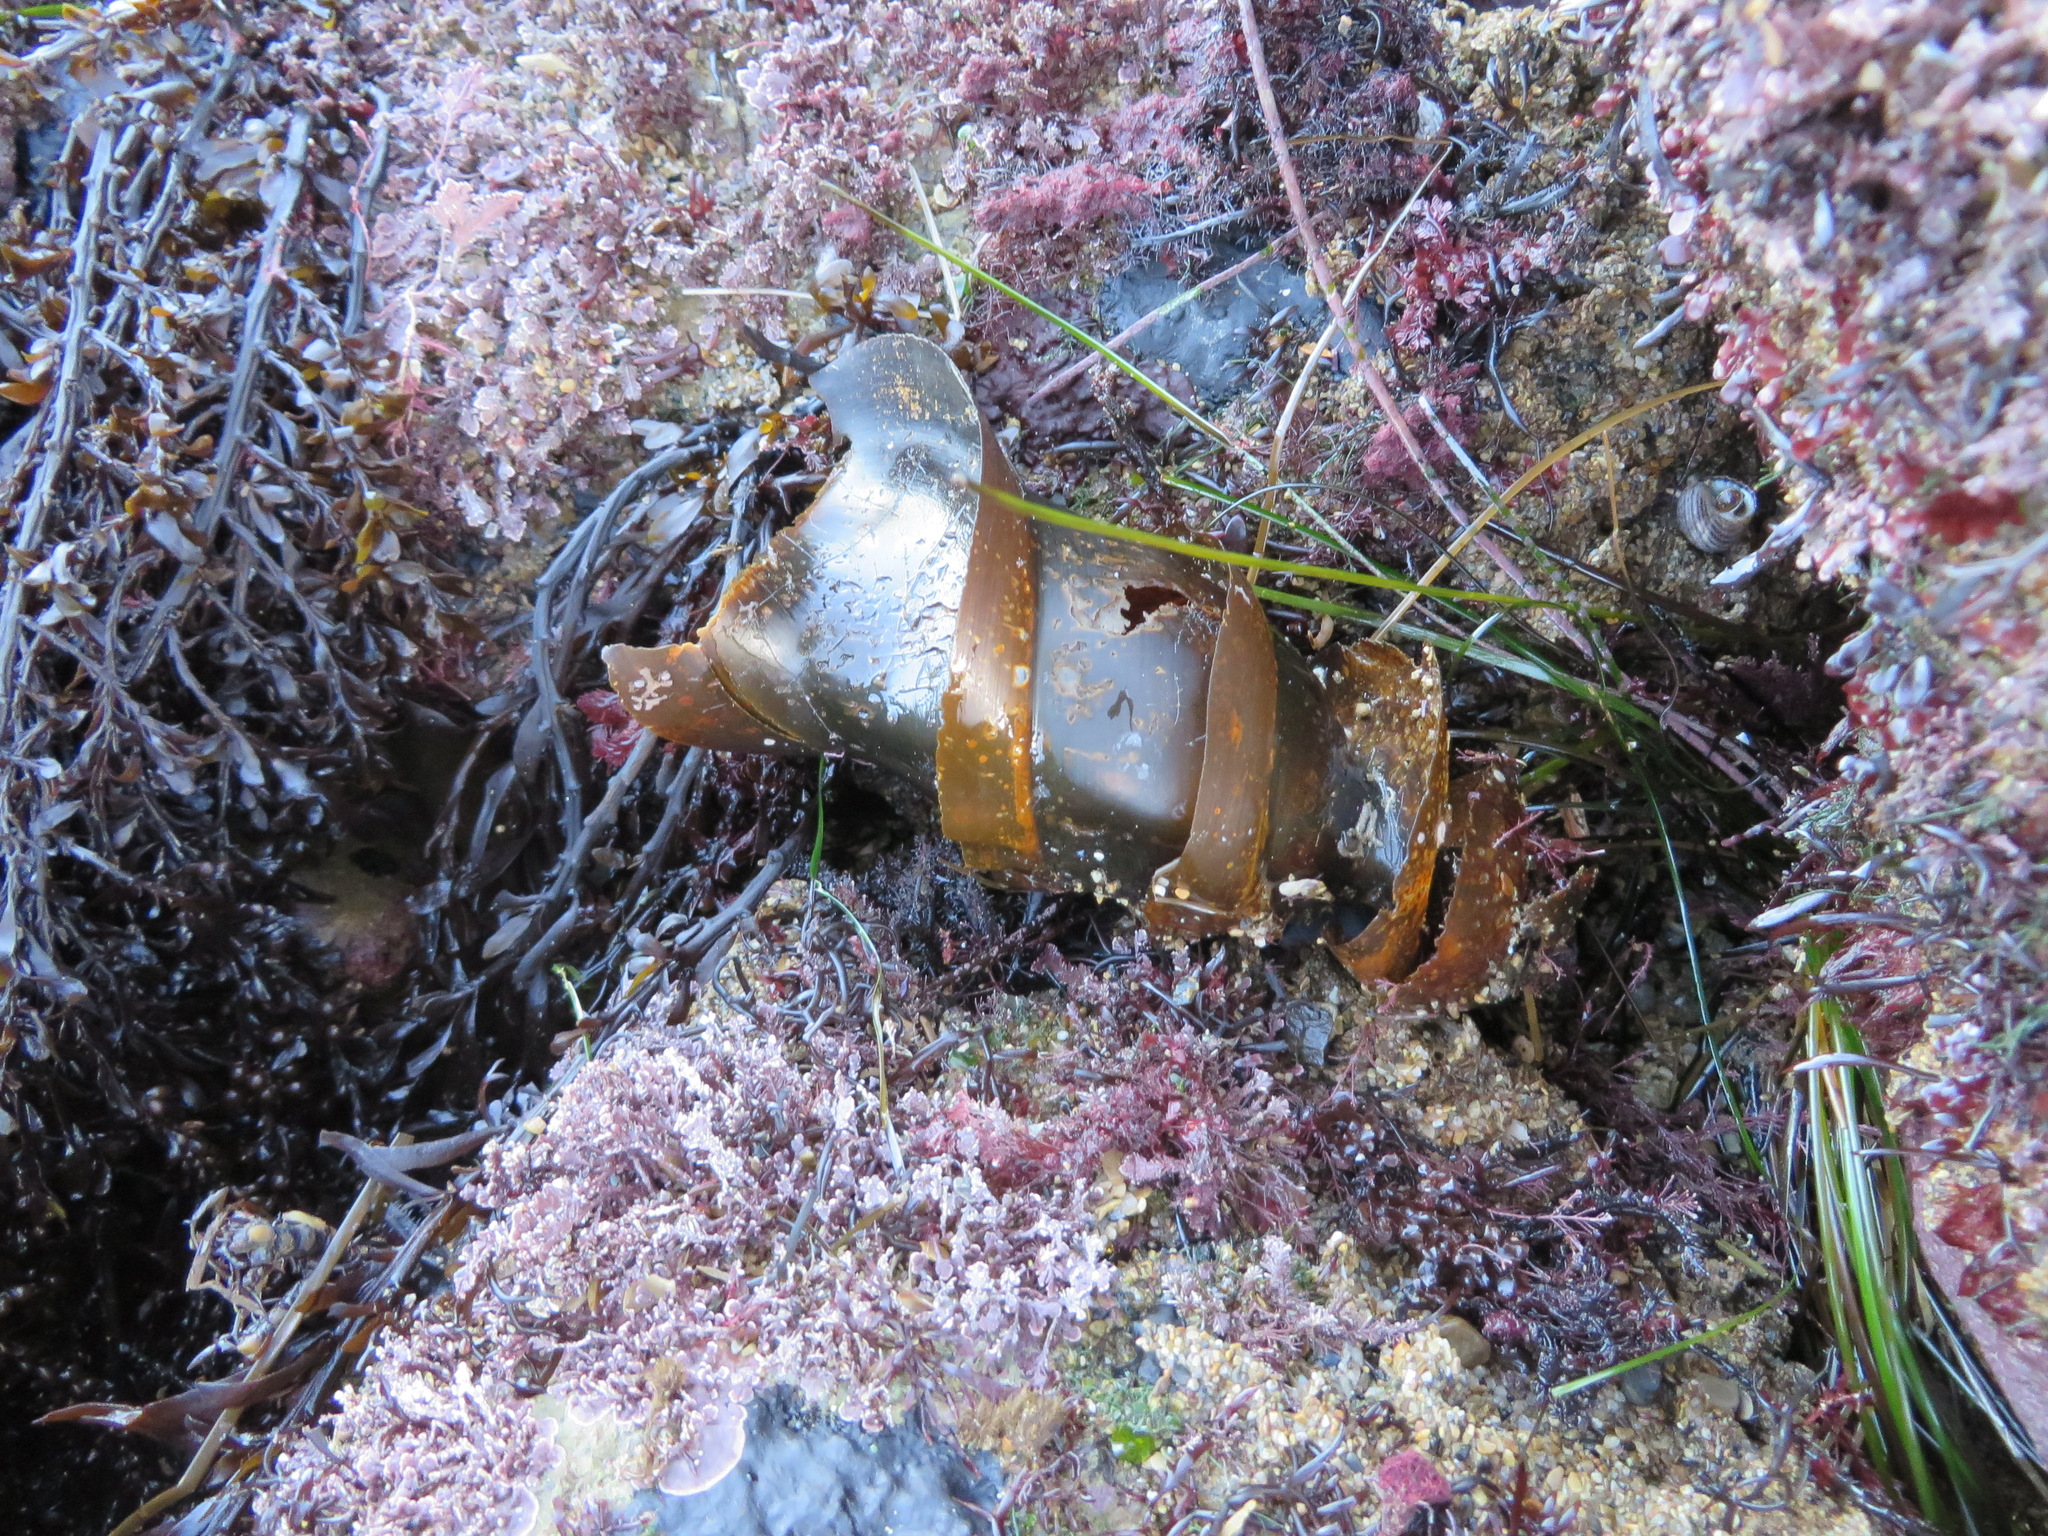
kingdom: Animalia
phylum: Chordata
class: Elasmobranchii
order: Heterodontiformes
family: Heterodontidae
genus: Heterodontus
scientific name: Heterodontus francisci
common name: Horn shark
